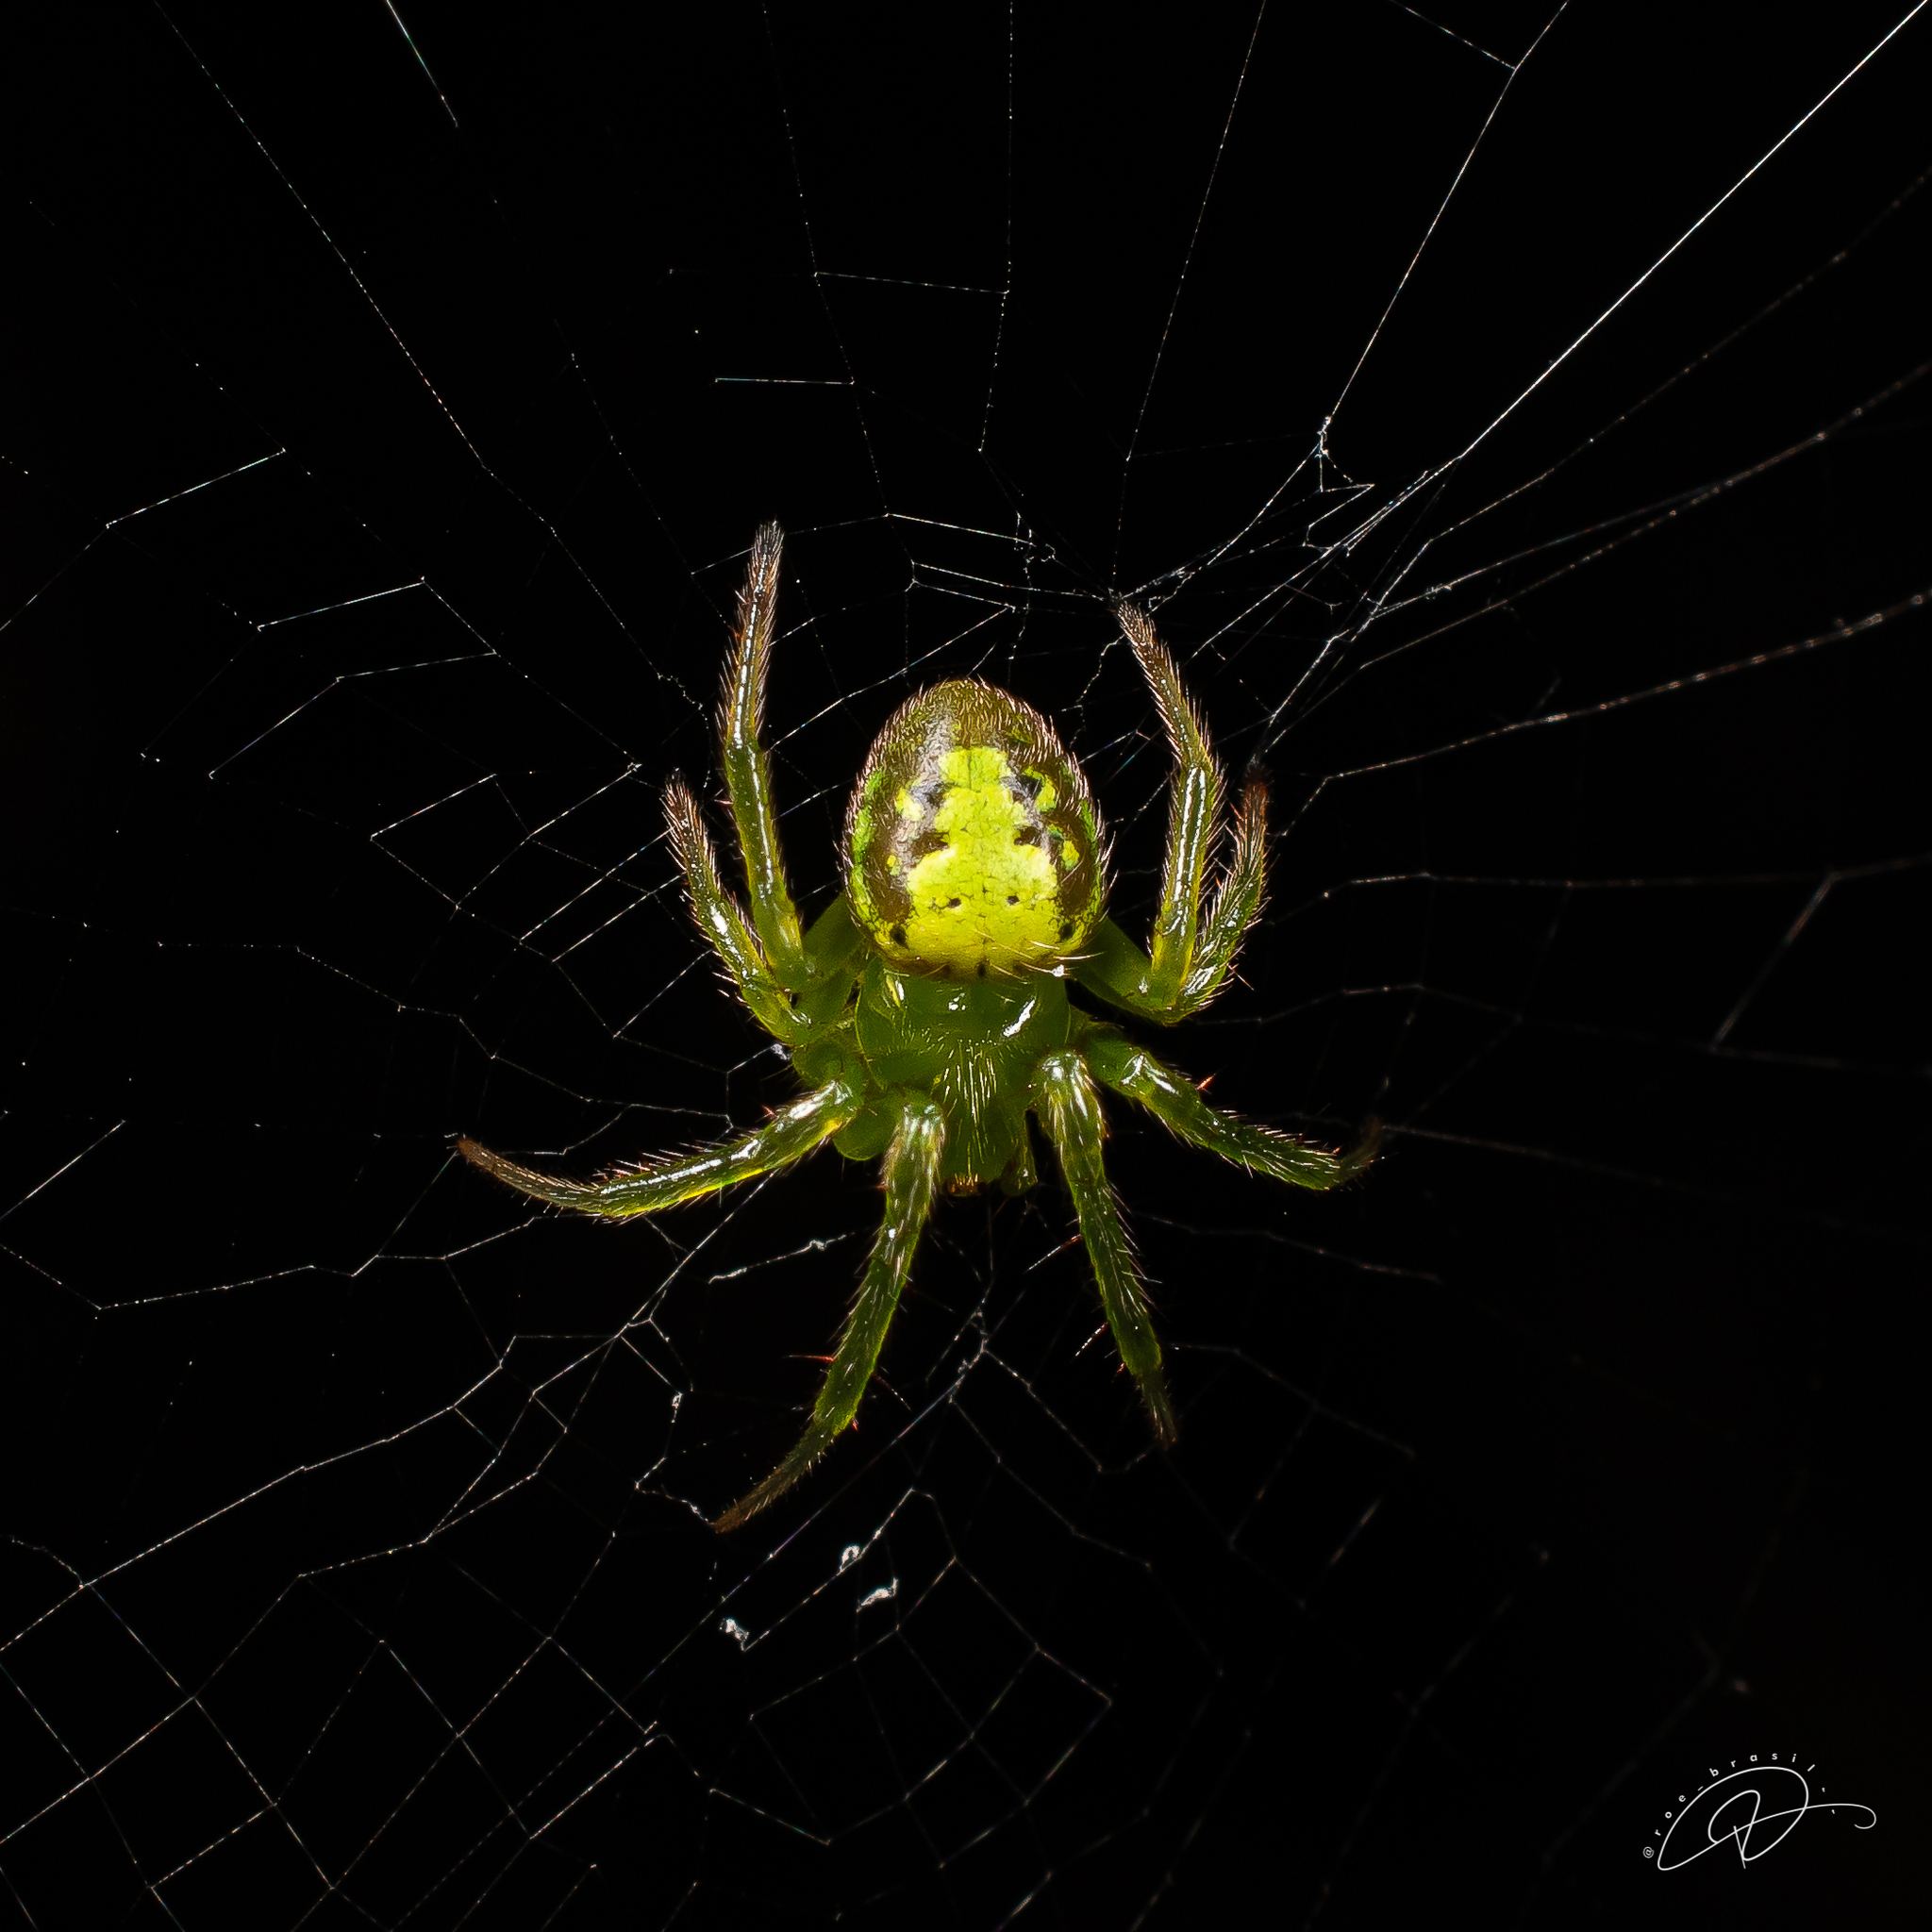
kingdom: Animalia
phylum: Arthropoda
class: Arachnida
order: Araneae
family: Araneidae
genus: Araneus
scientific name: Araneus unanimus
